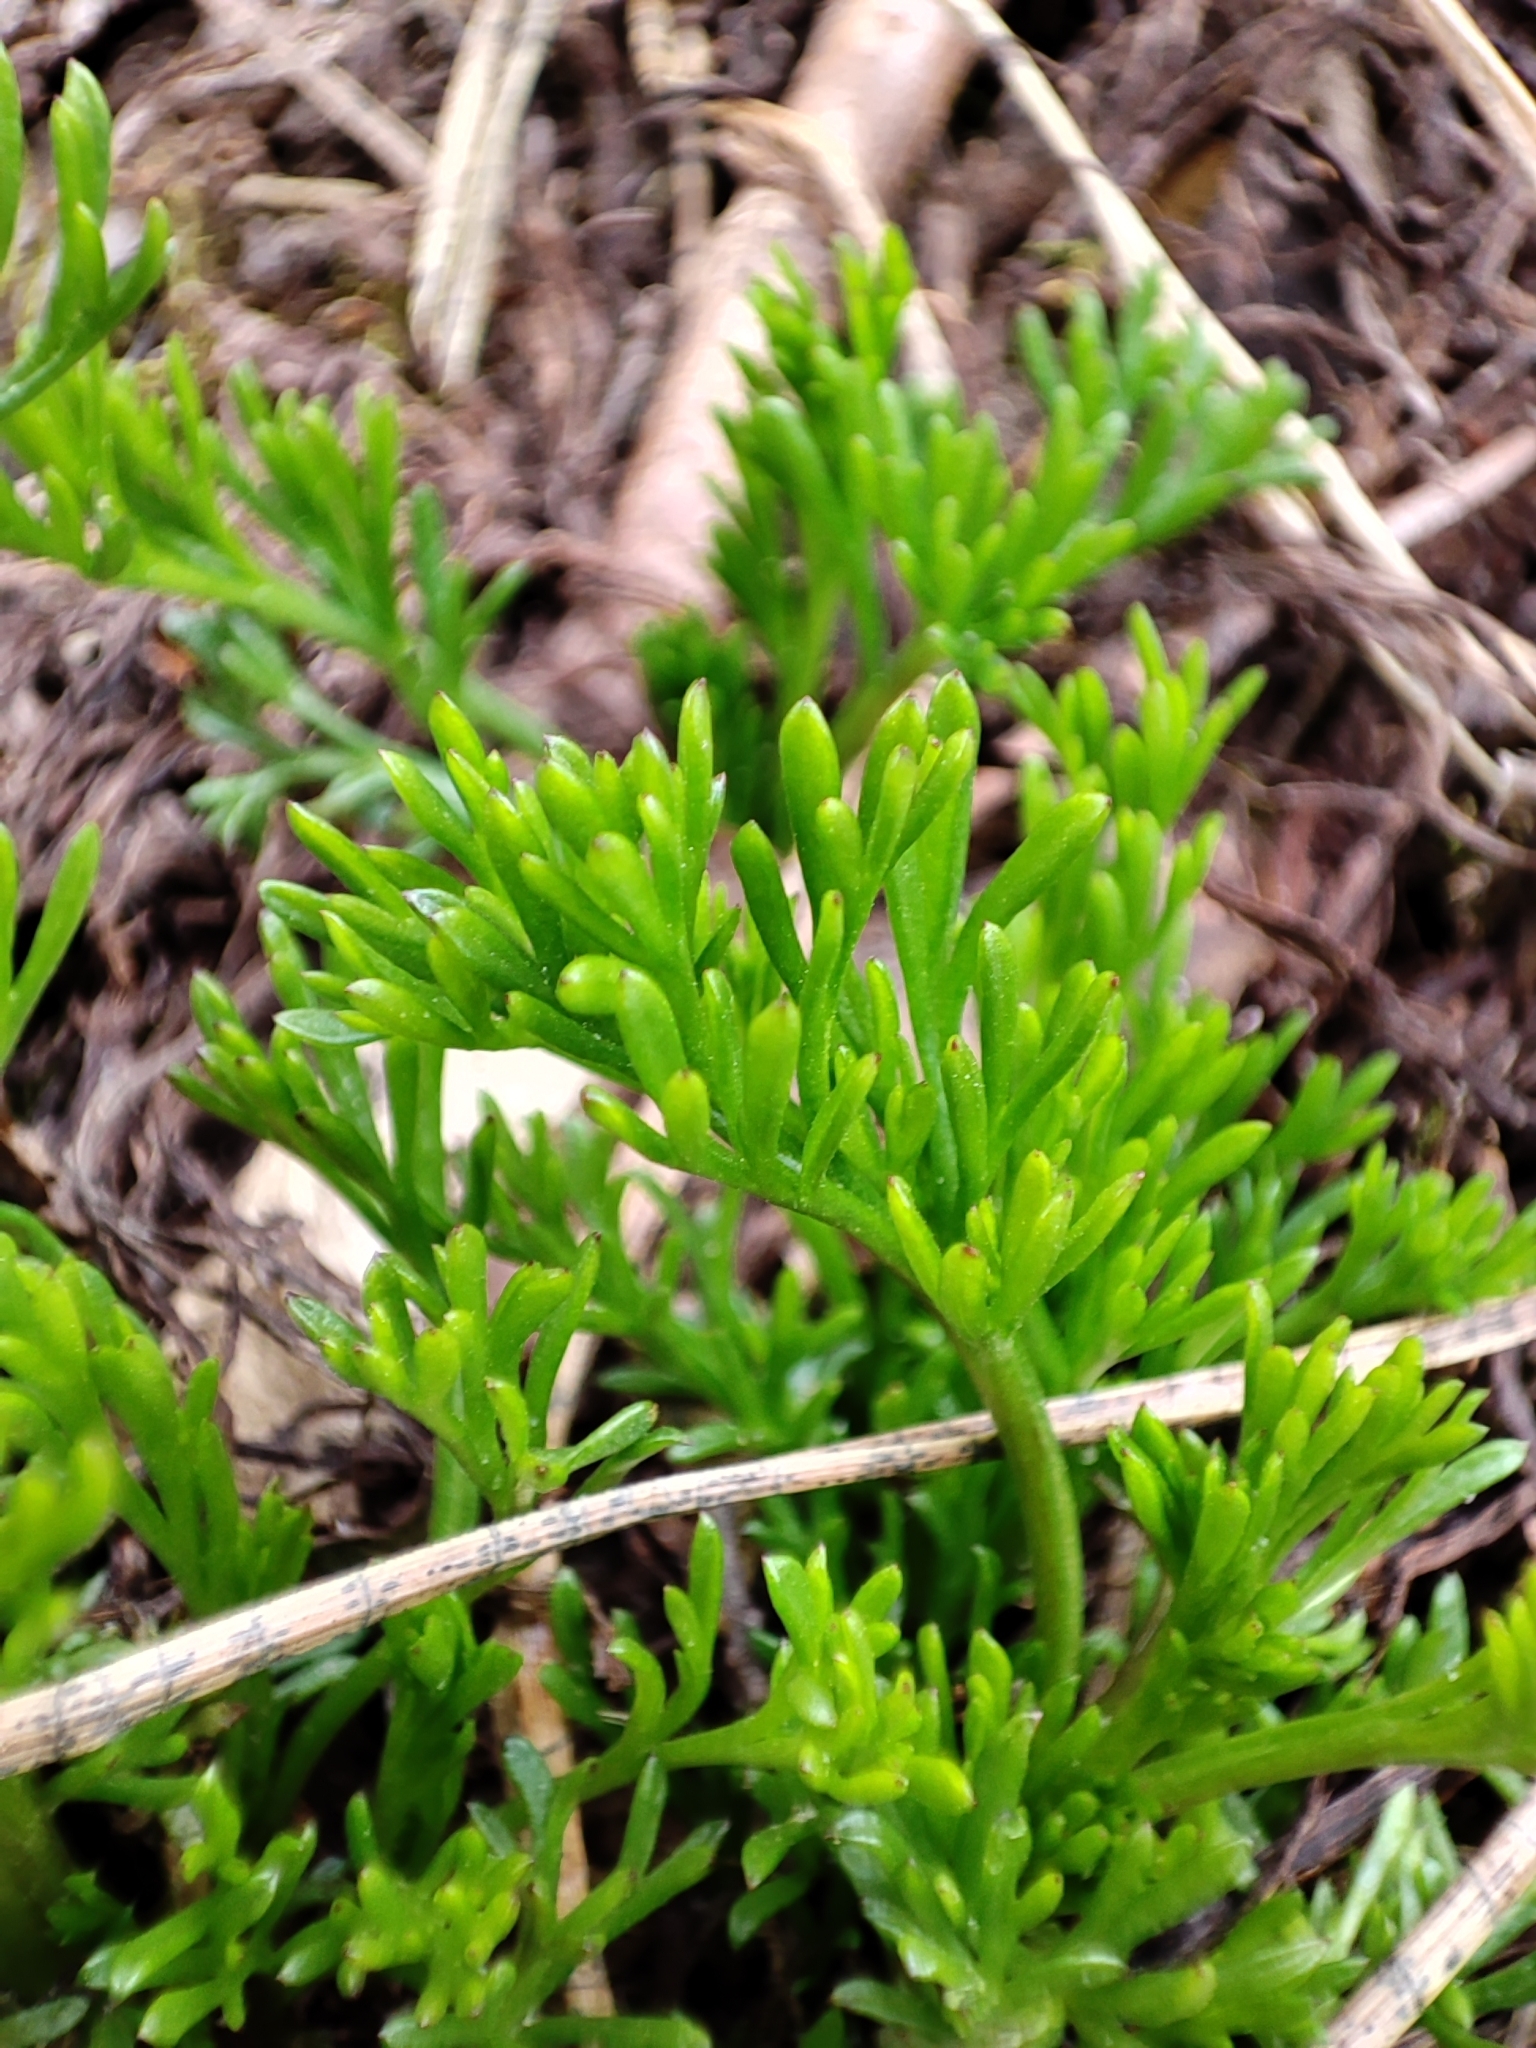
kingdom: Plantae
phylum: Tracheophyta
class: Magnoliopsida
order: Asterales
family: Asteraceae
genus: Artemisia
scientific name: Artemisia campestris
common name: Field wormwood
